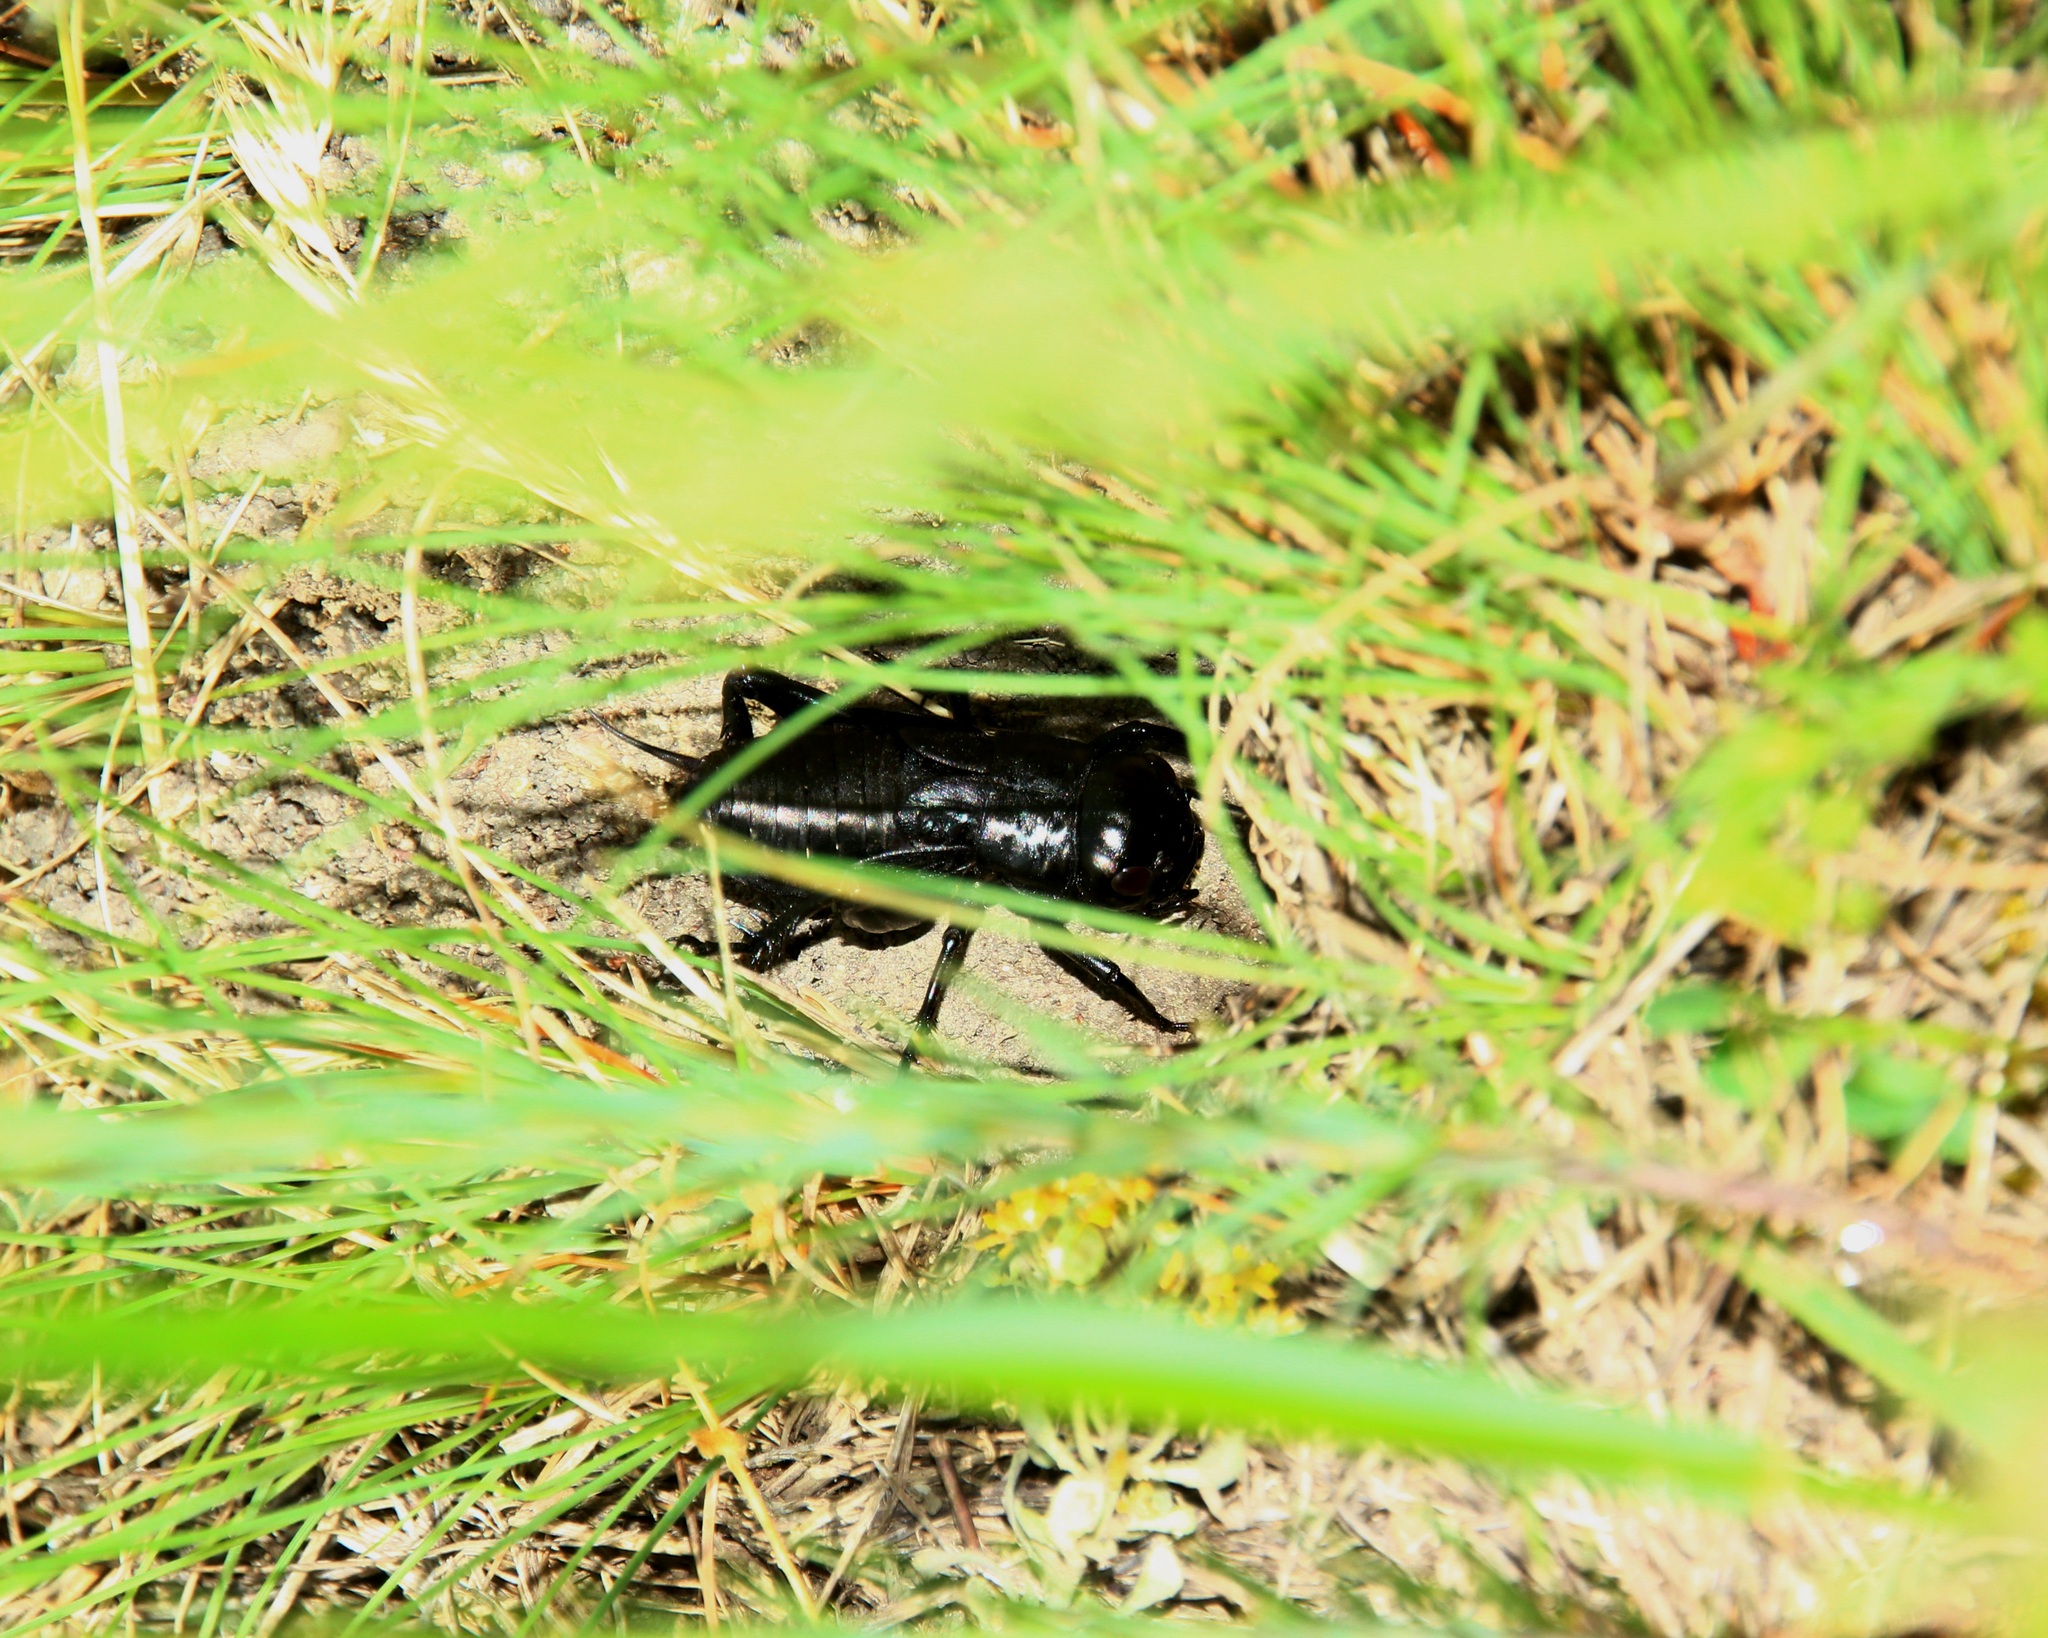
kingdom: Animalia
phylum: Arthropoda
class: Insecta
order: Orthoptera
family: Gryllidae
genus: Gryllus
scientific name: Gryllus campestris
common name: Field cricket
